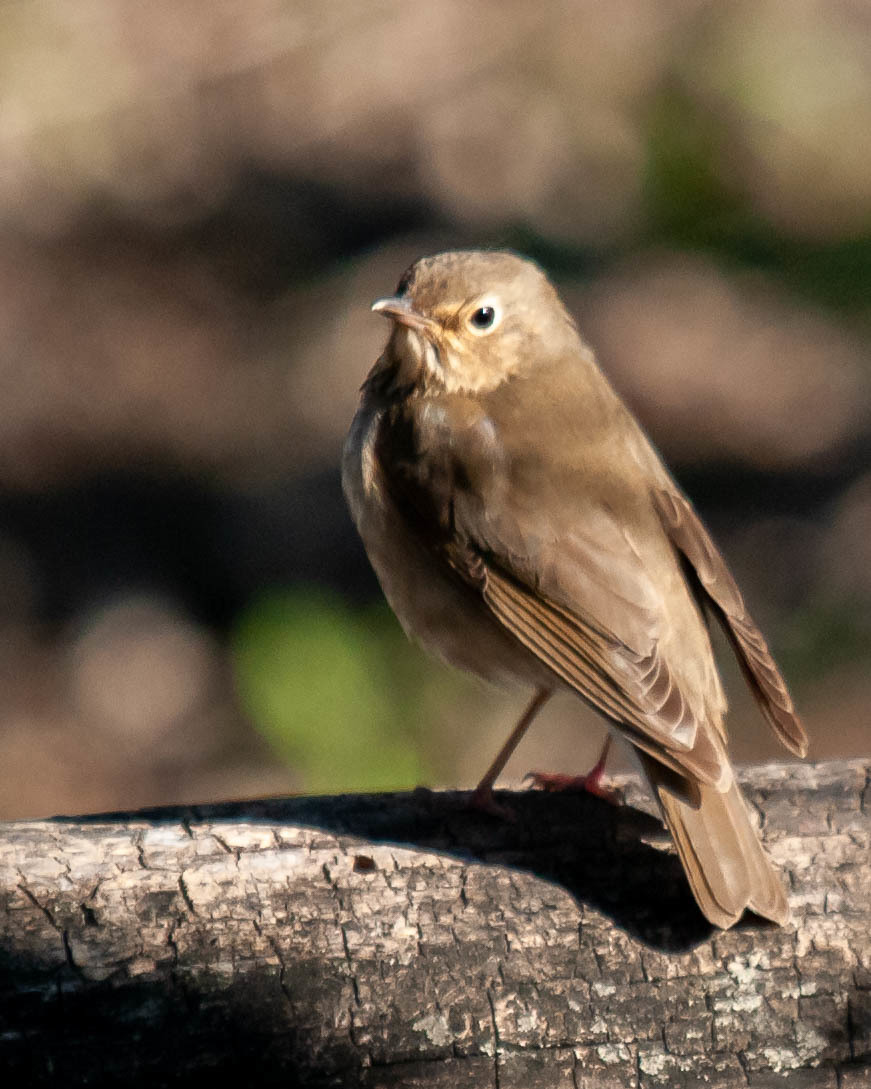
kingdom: Animalia
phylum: Chordata
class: Aves
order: Passeriformes
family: Turdidae
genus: Catharus
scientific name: Catharus ustulatus
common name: Swainson's thrush
